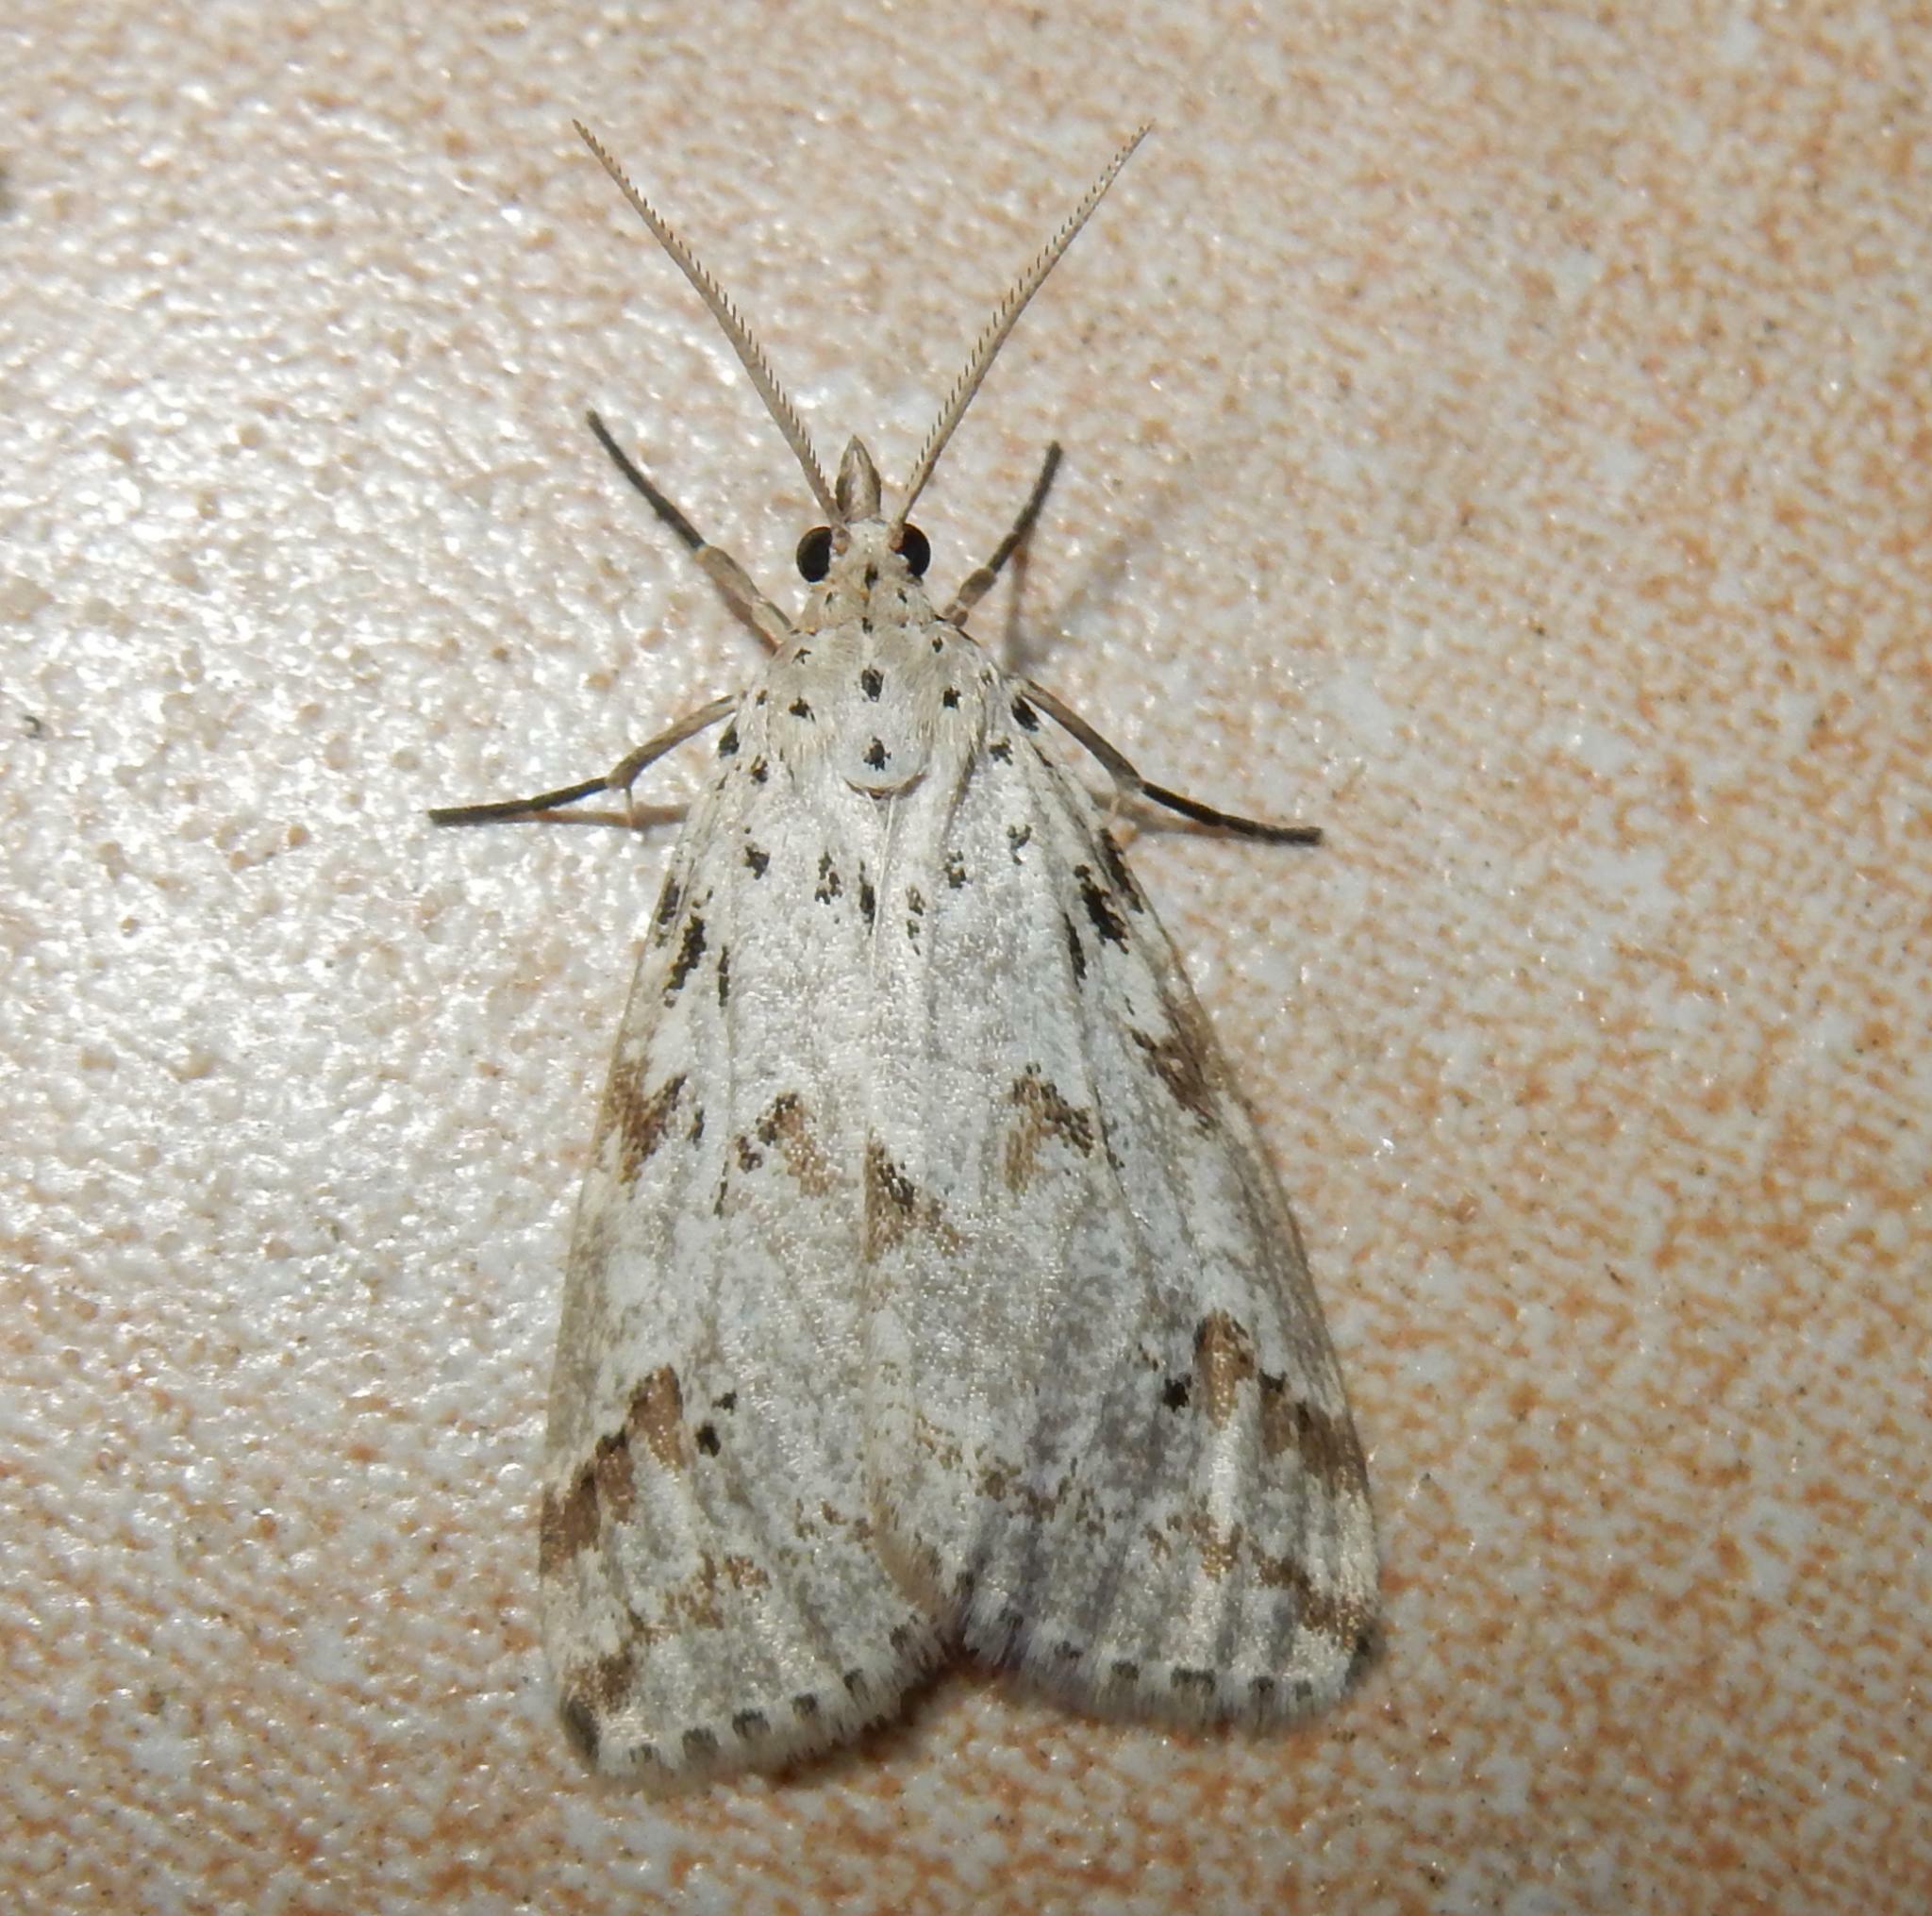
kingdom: Animalia
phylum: Arthropoda
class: Insecta
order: Lepidoptera
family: Erebidae
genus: Galtara
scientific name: Galtara rostrata
